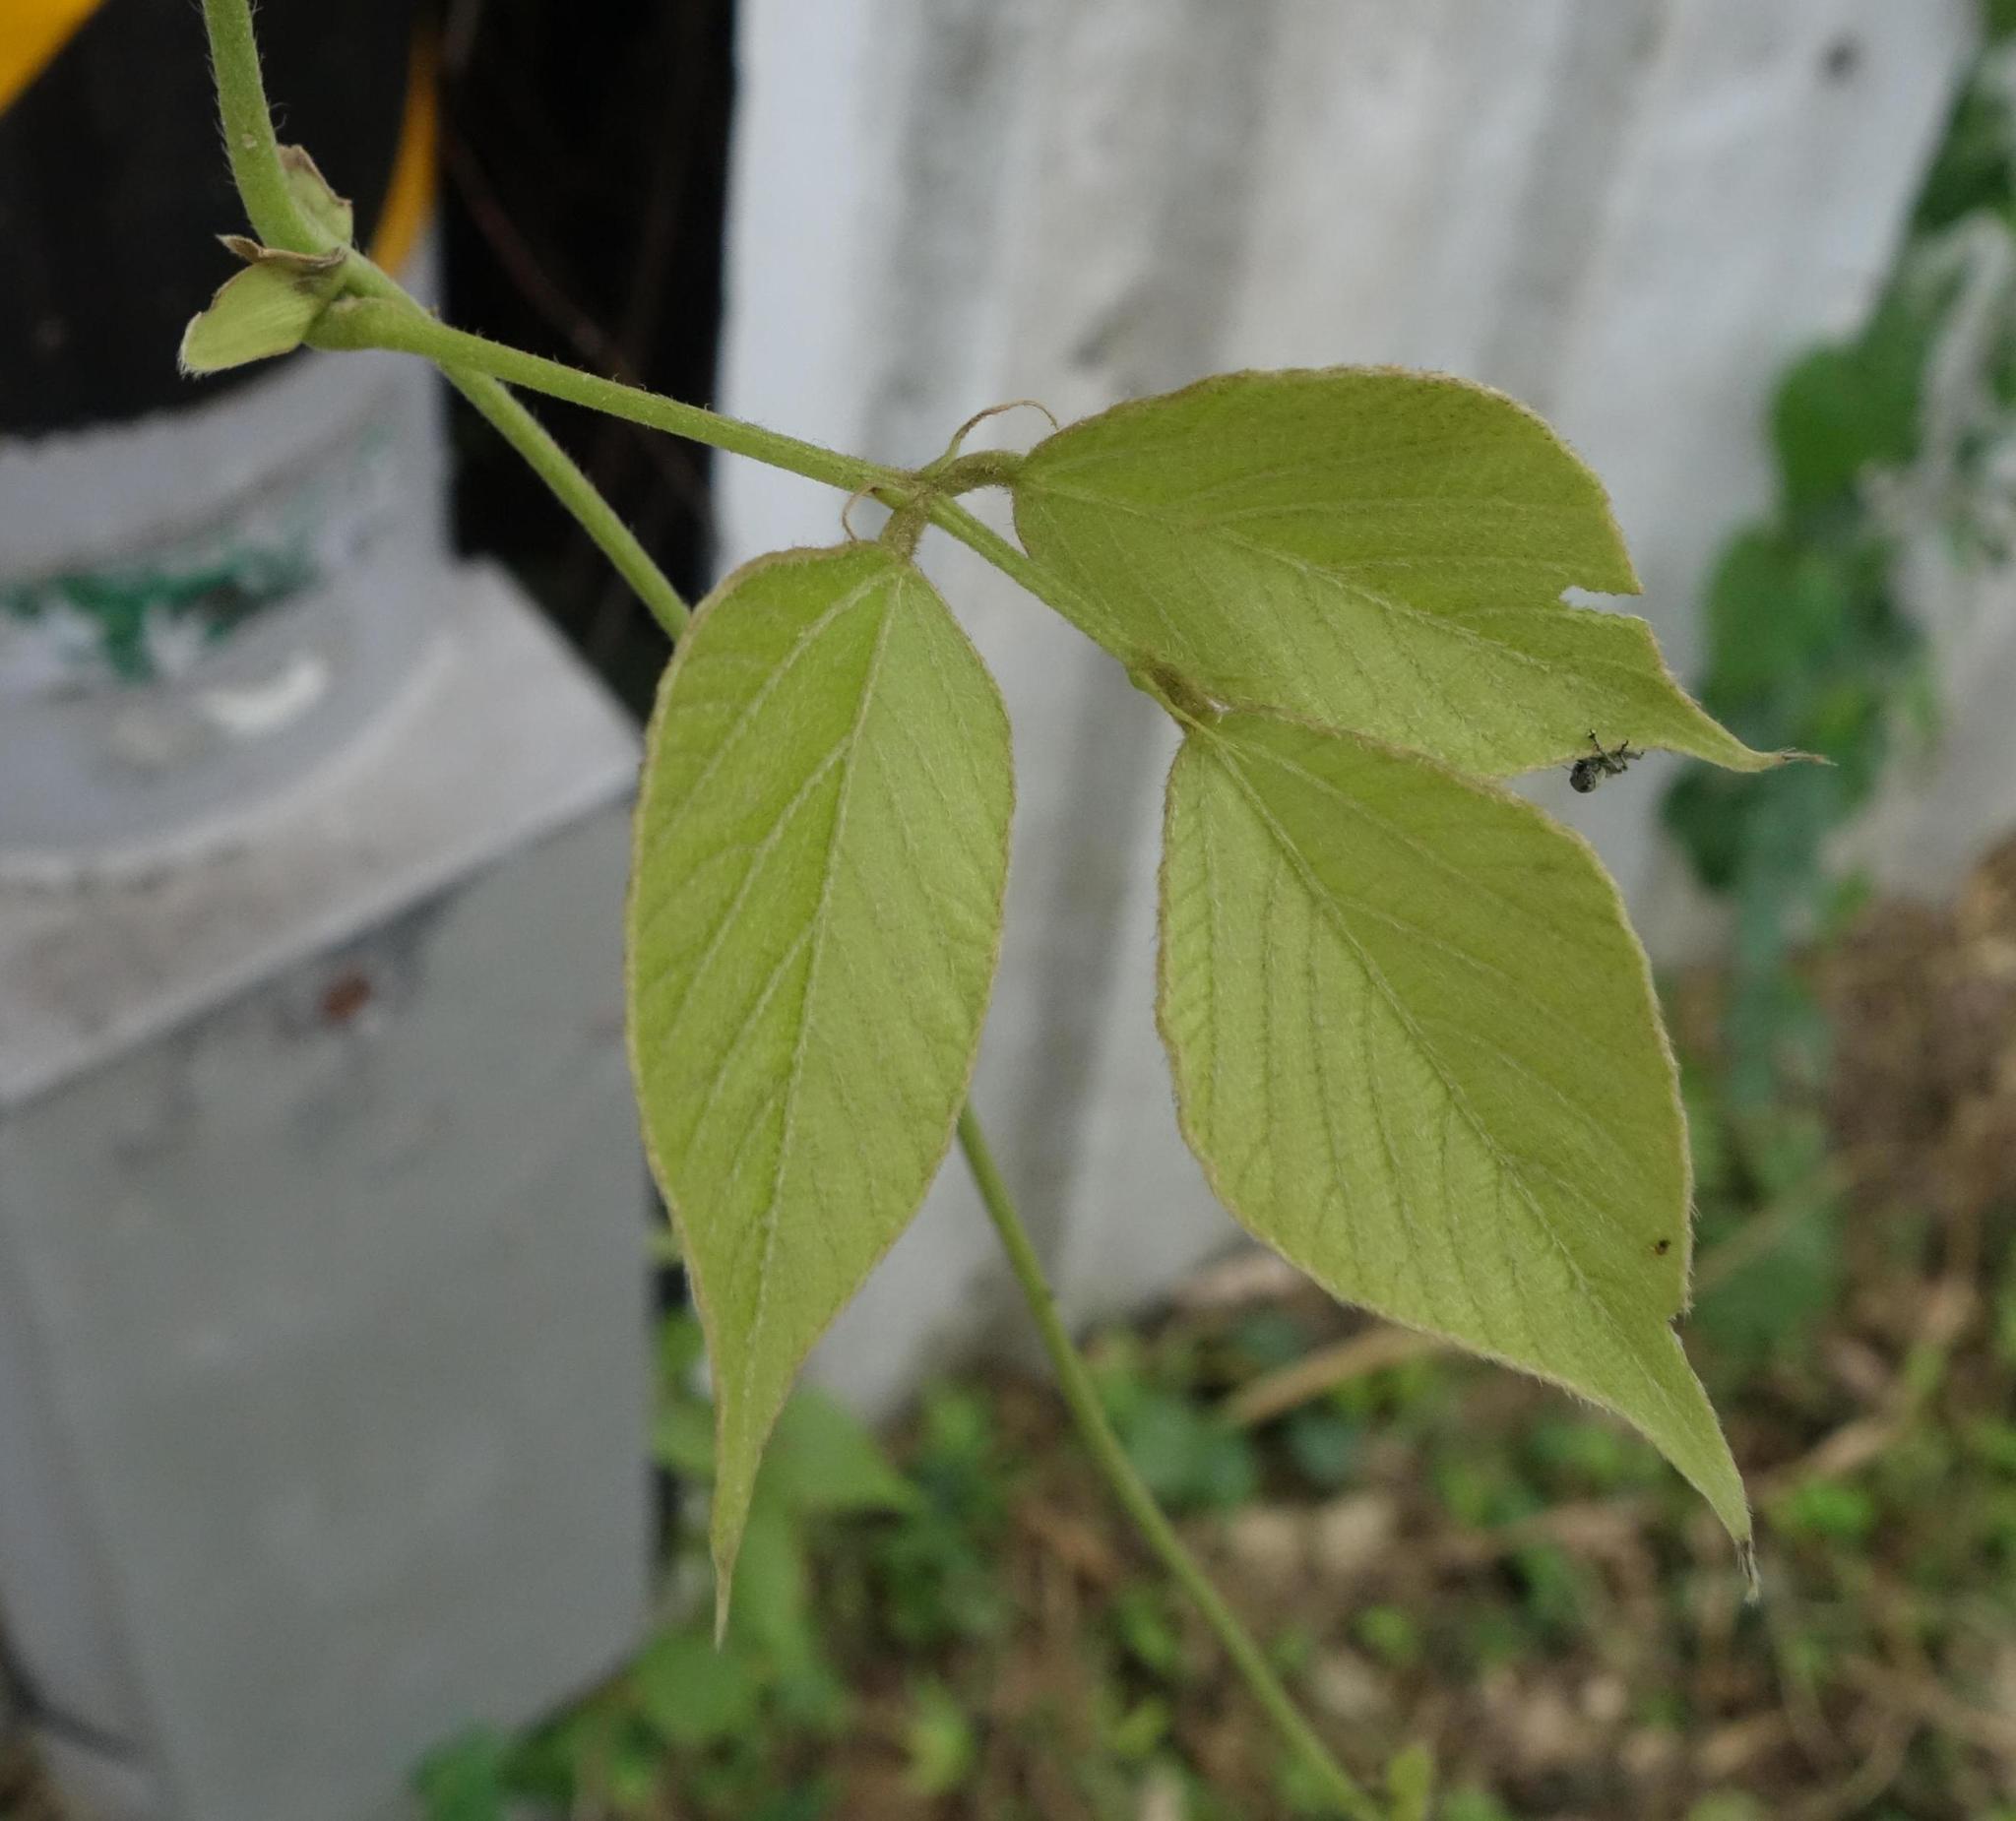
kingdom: Plantae
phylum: Tracheophyta
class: Magnoliopsida
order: Fabales
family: Fabaceae
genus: Pueraria
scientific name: Pueraria montana
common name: Kudzu
